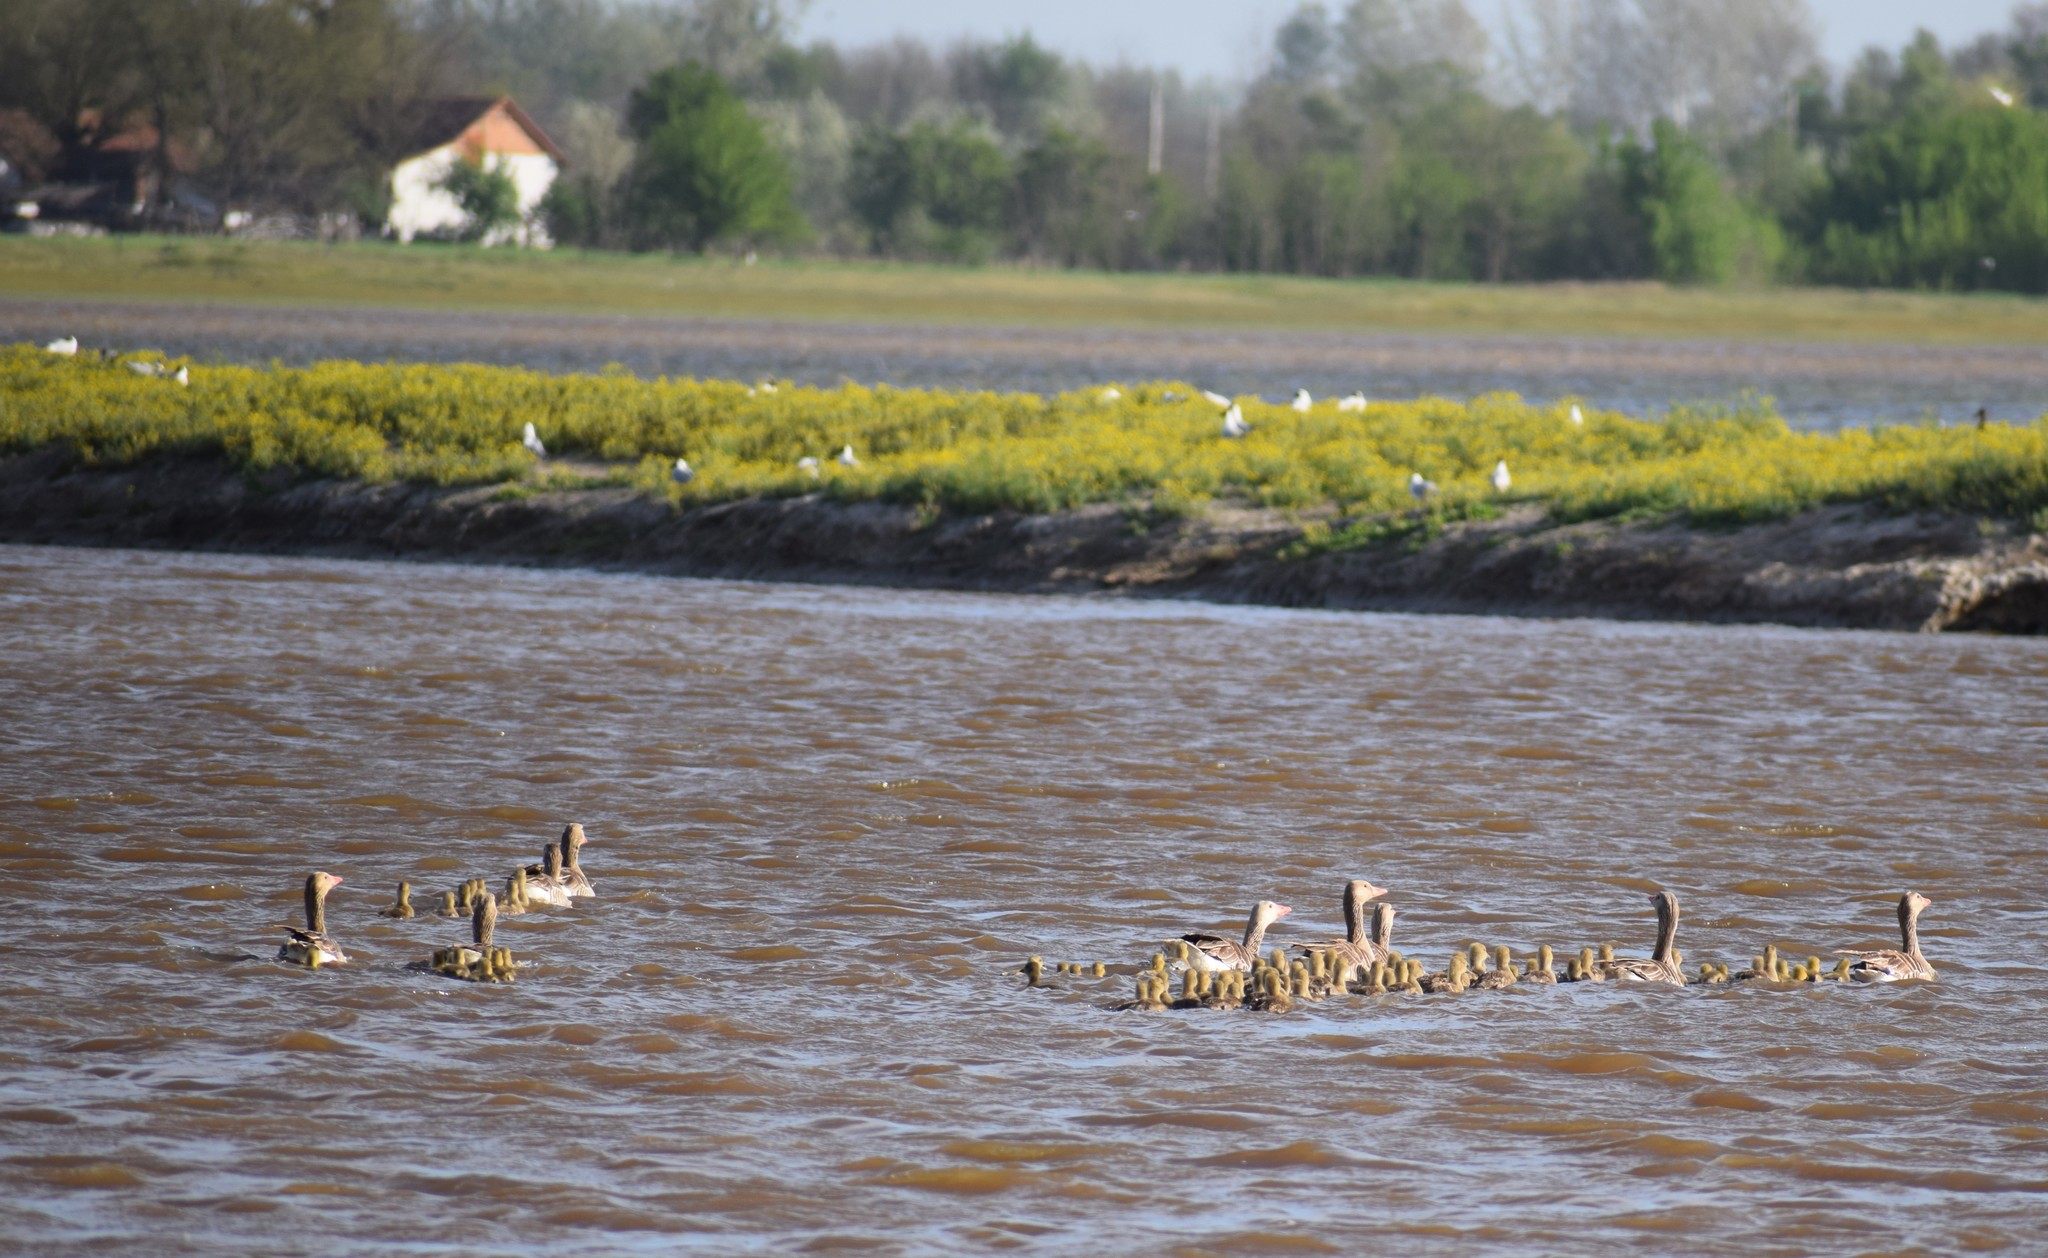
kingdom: Animalia
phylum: Chordata
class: Aves
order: Anseriformes
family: Anatidae
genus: Anser
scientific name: Anser anser
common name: Greylag goose
